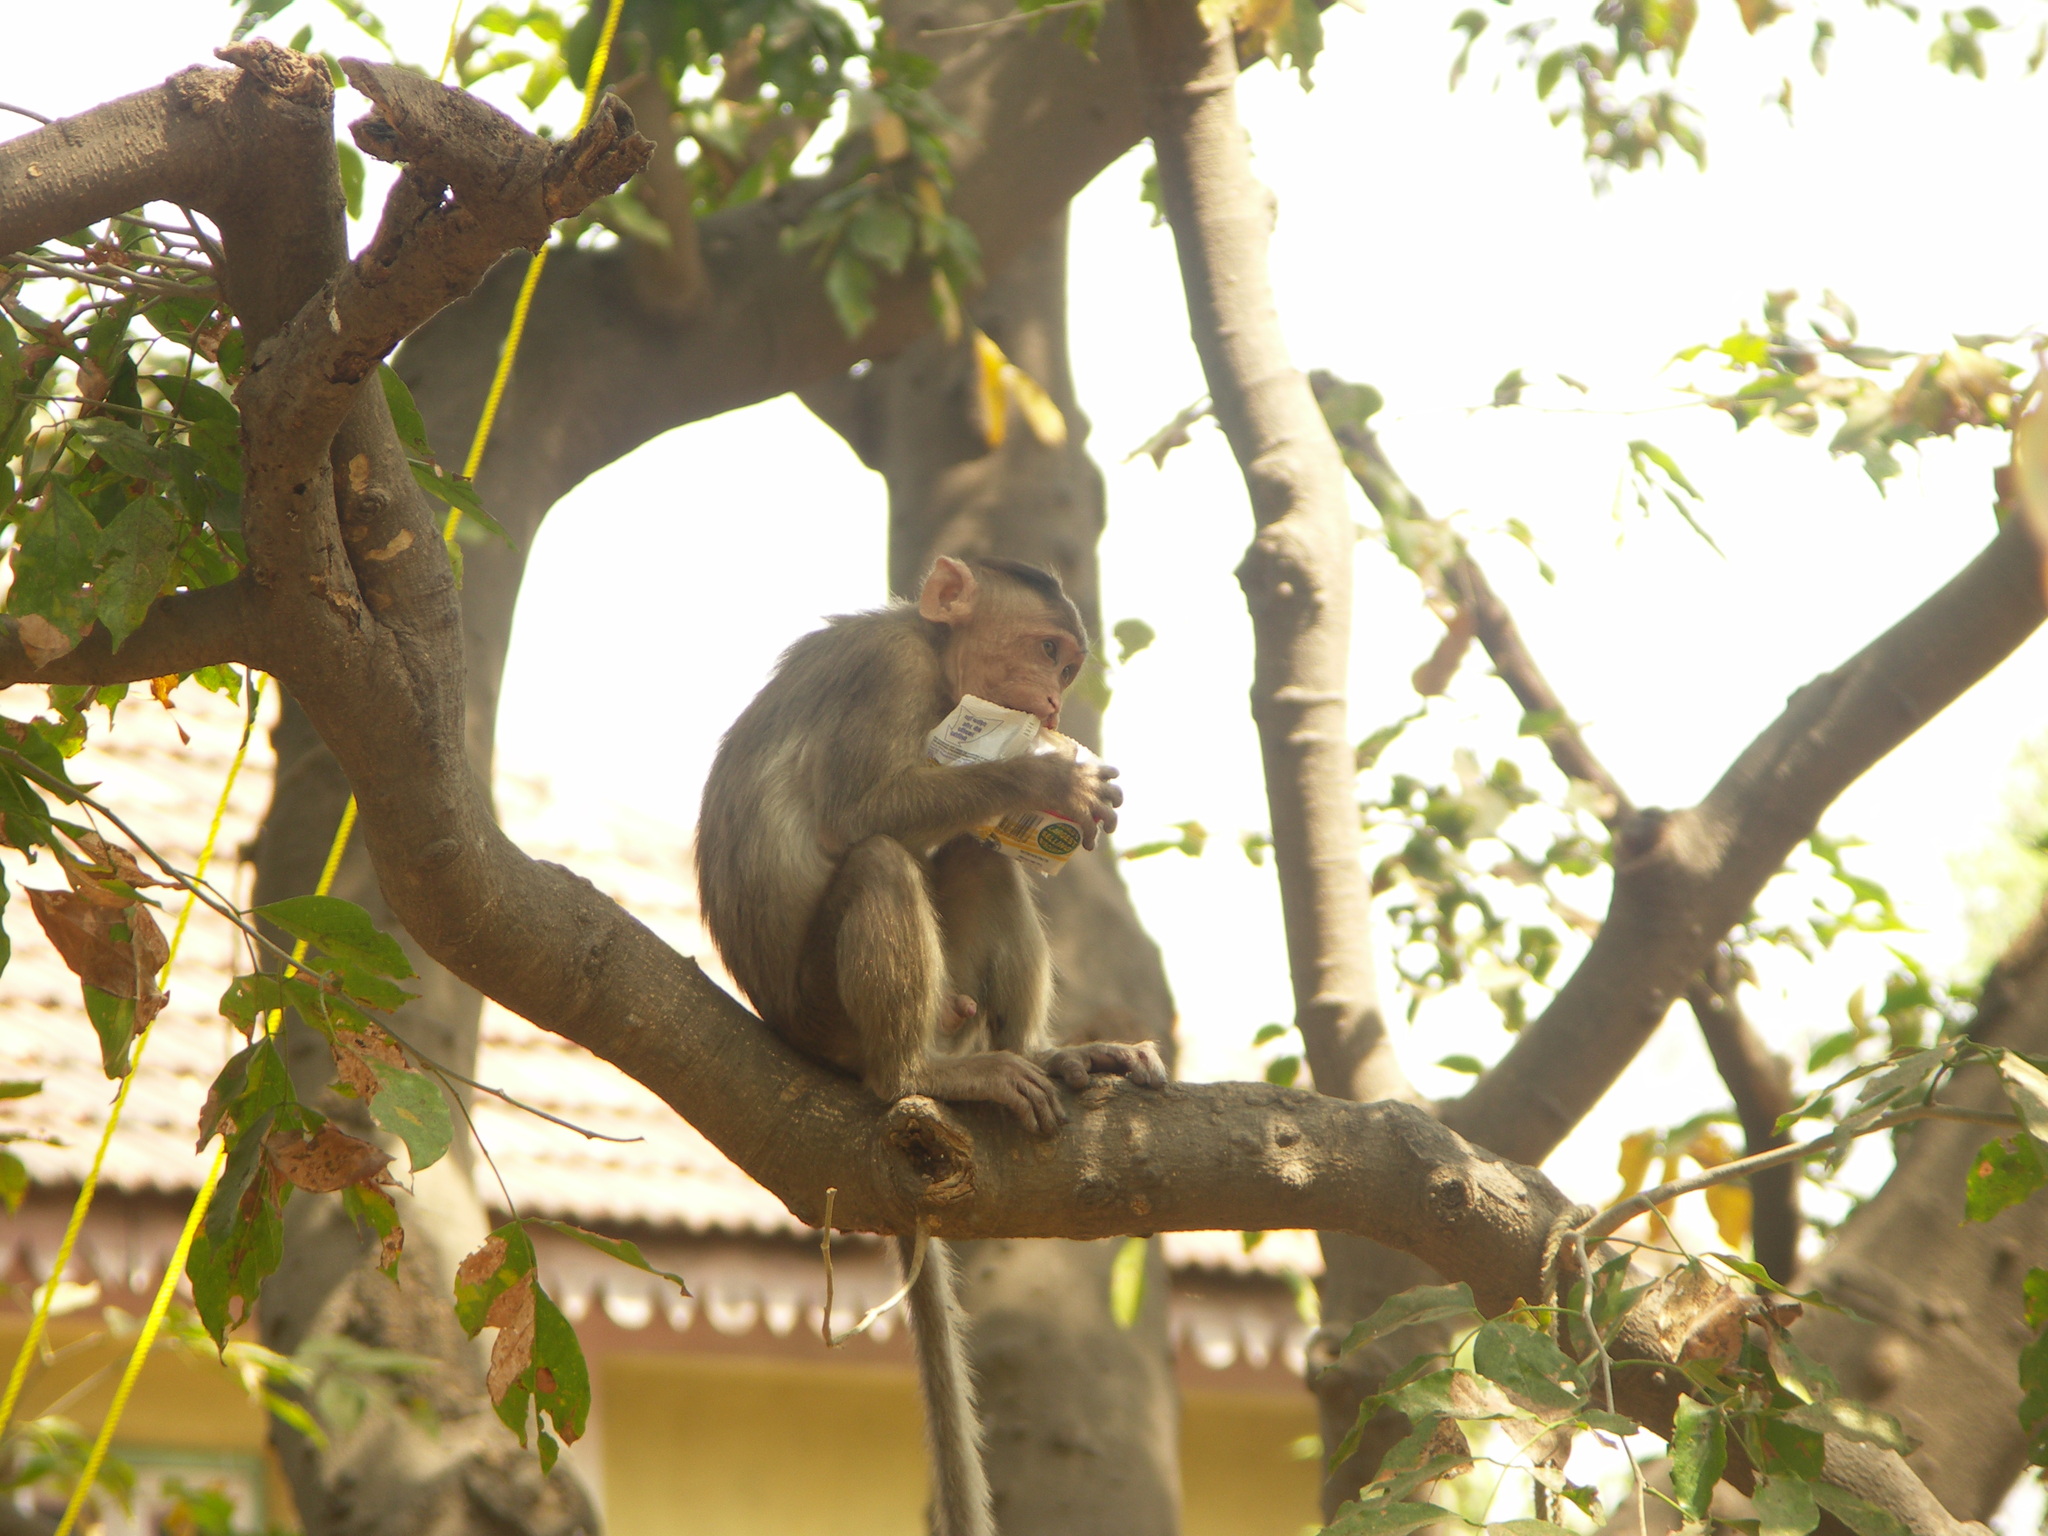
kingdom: Animalia
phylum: Chordata
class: Mammalia
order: Primates
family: Cercopithecidae
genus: Macaca
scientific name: Macaca radiata
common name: Bonnet macaque
